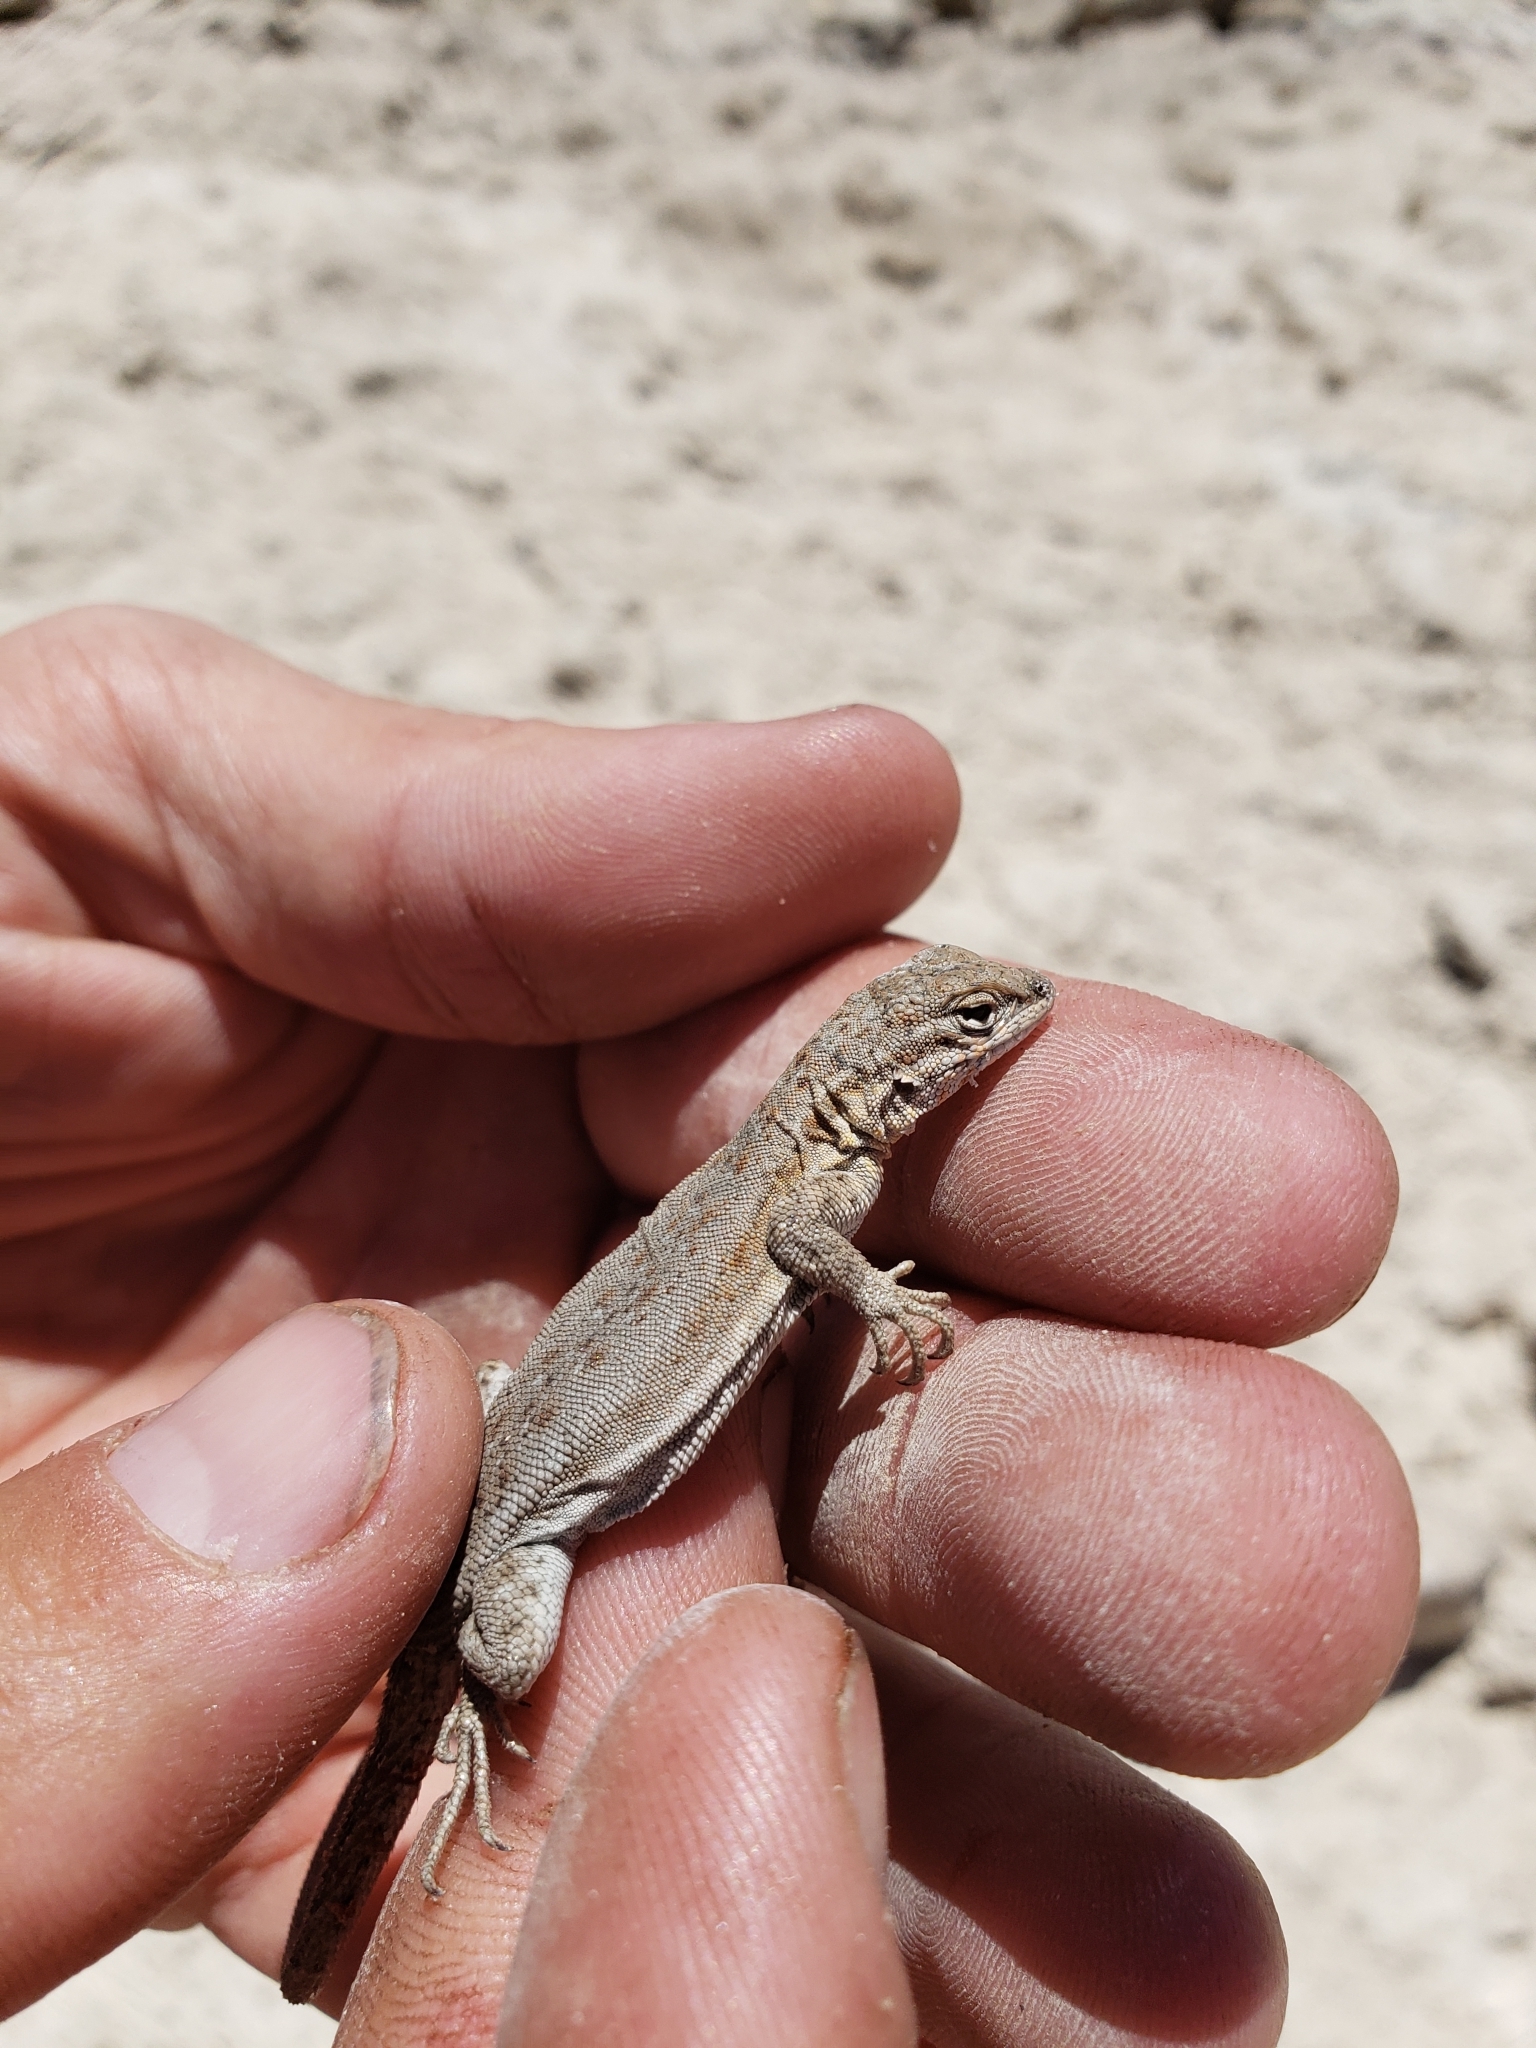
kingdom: Animalia
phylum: Chordata
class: Squamata
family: Phrynosomatidae
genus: Uta
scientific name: Uta stansburiana
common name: Side-blotched lizard
